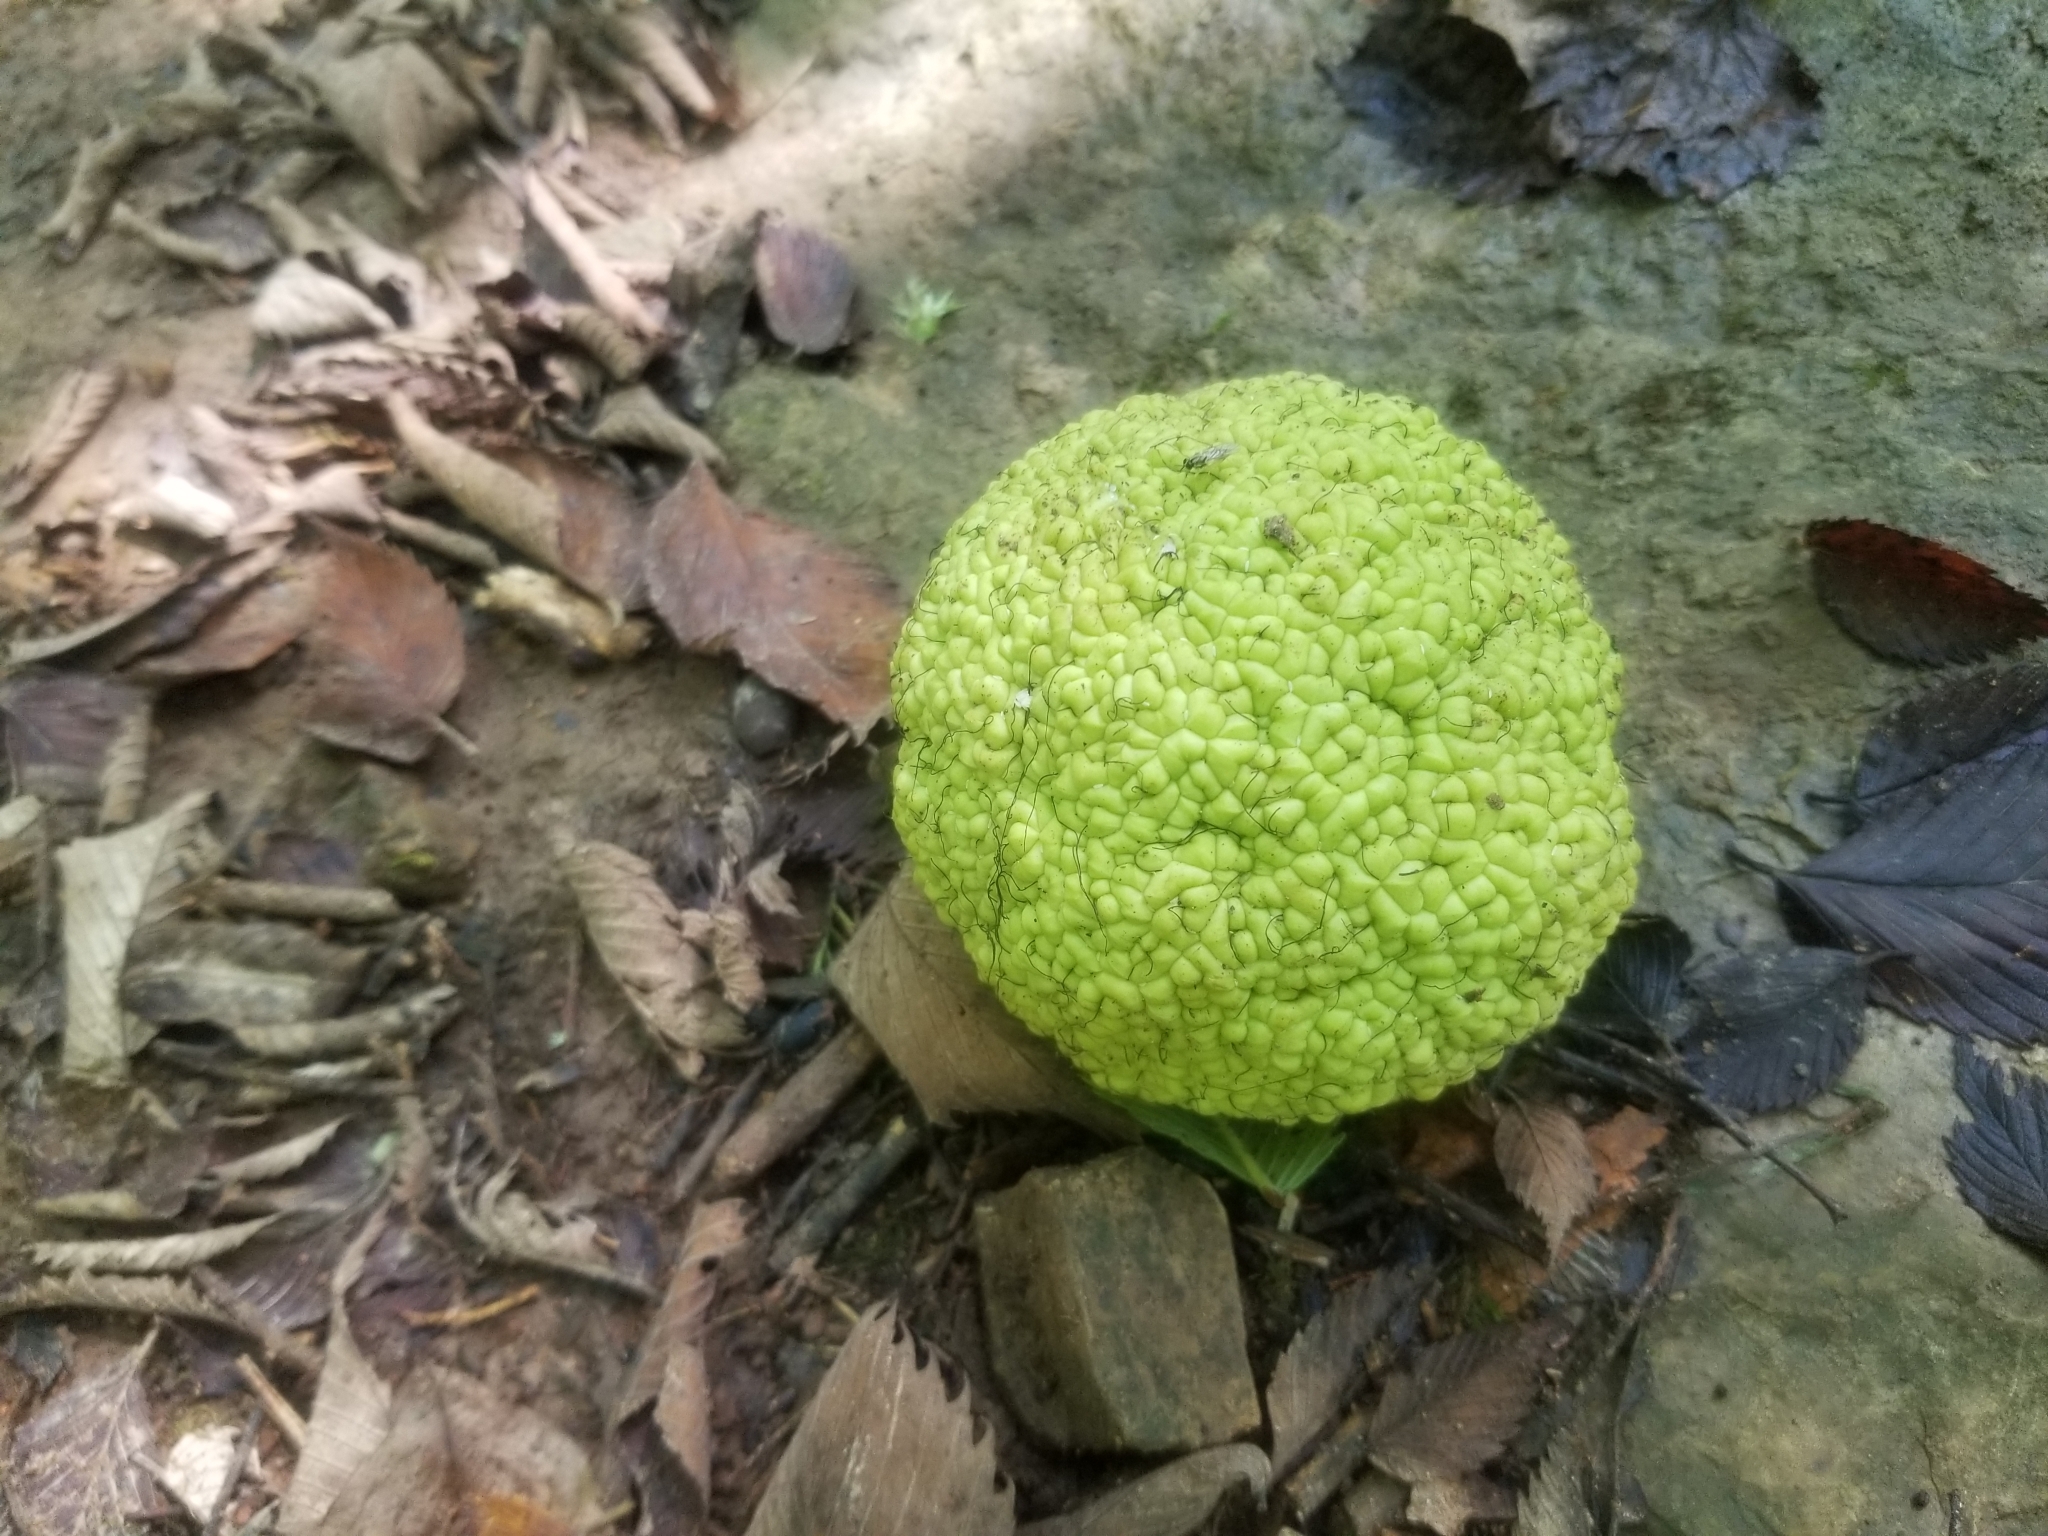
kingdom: Plantae
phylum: Tracheophyta
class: Magnoliopsida
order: Rosales
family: Moraceae
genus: Maclura
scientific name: Maclura pomifera
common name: Osage-orange
